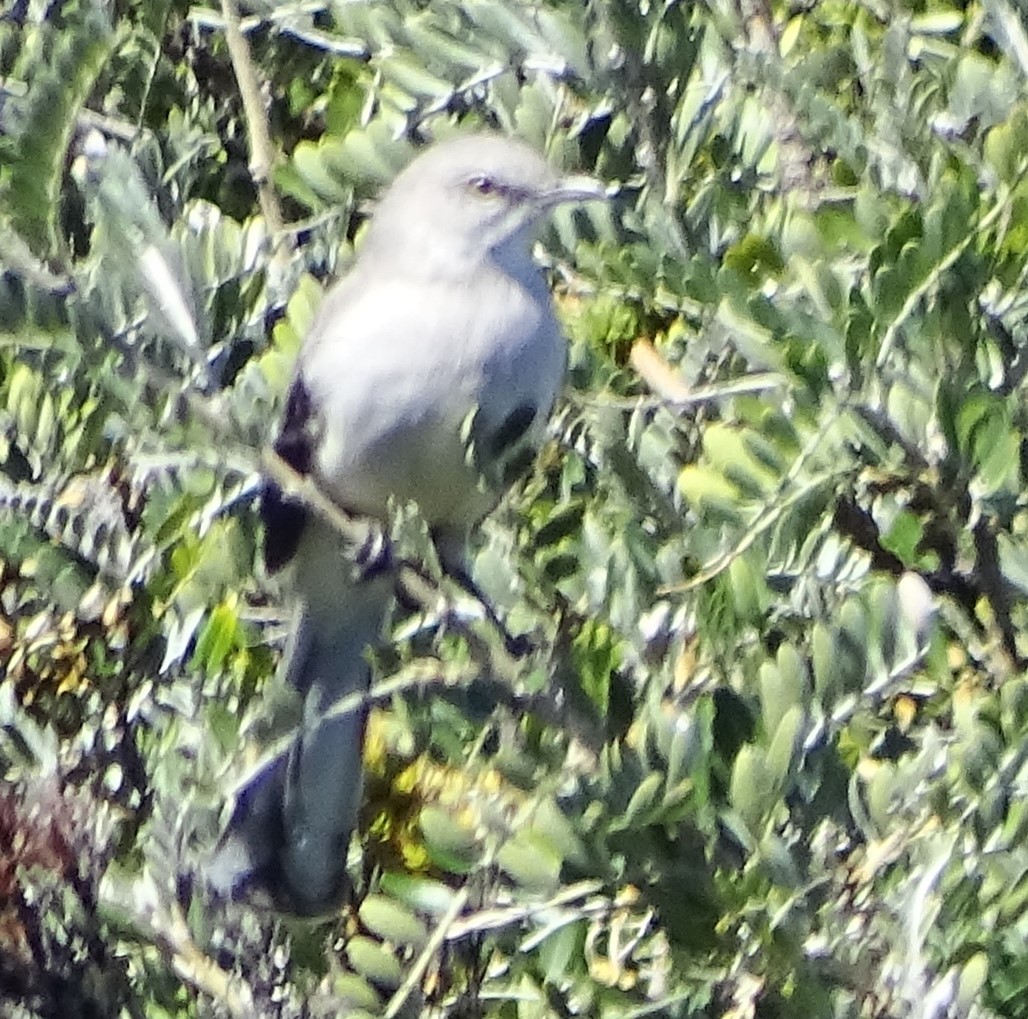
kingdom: Animalia
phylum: Chordata
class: Aves
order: Passeriformes
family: Mimidae
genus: Mimus
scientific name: Mimus polyglottos
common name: Northern mockingbird
